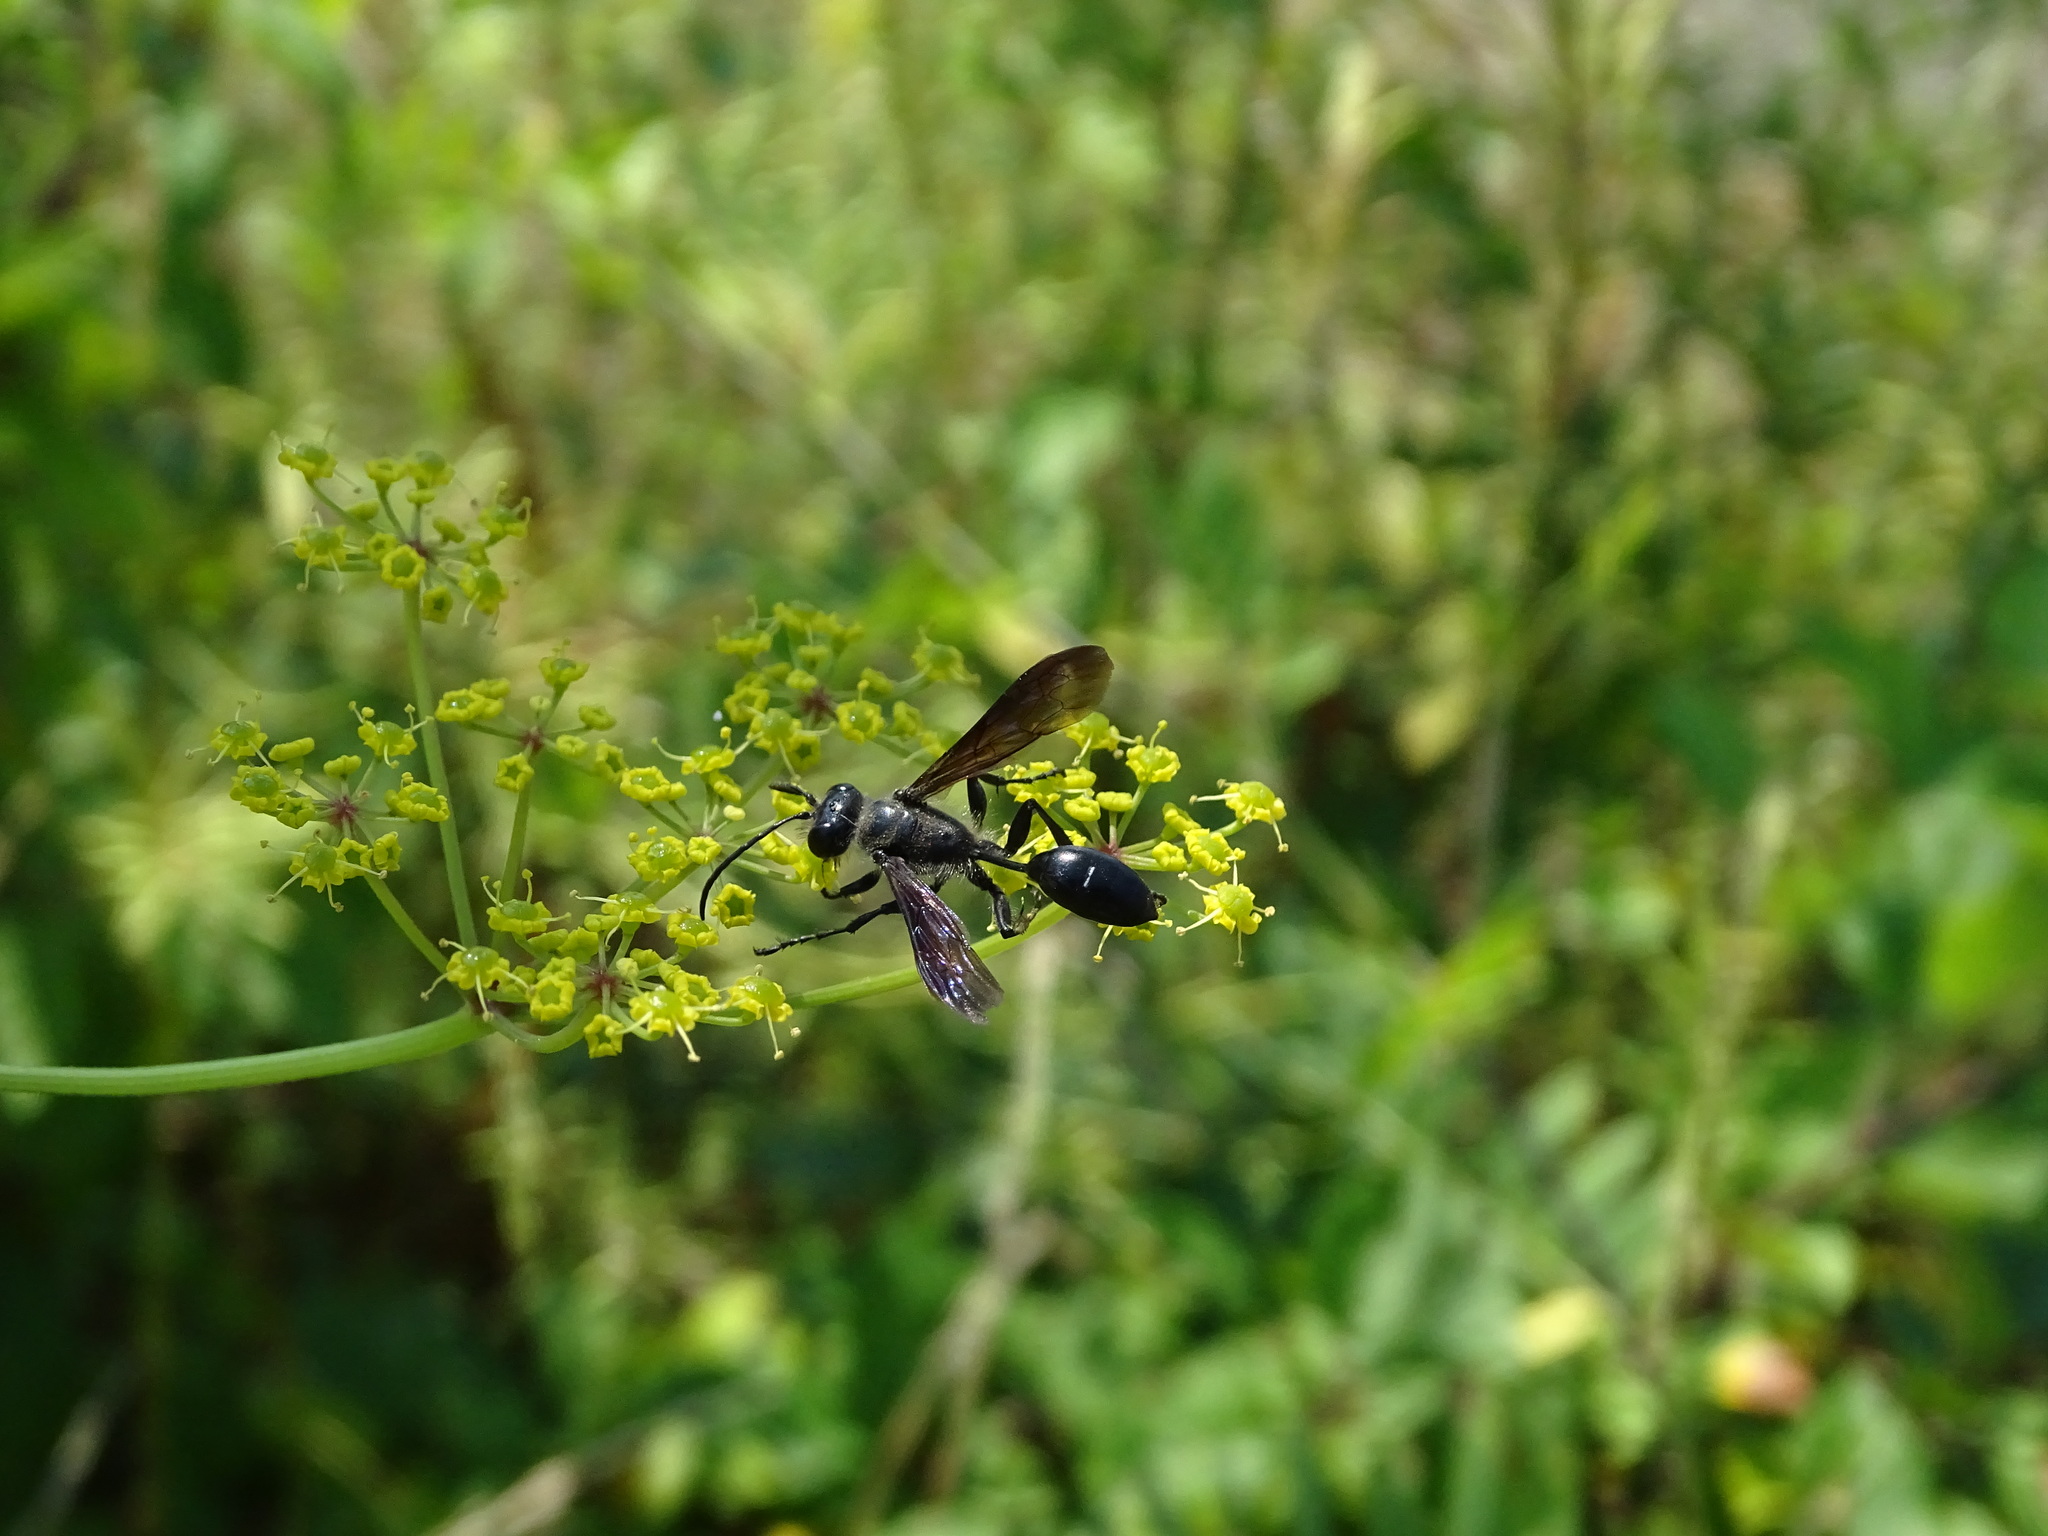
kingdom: Animalia
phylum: Arthropoda
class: Insecta
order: Hymenoptera
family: Sphecidae
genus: Isodontia
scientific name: Isodontia mexicana
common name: Mud dauber
